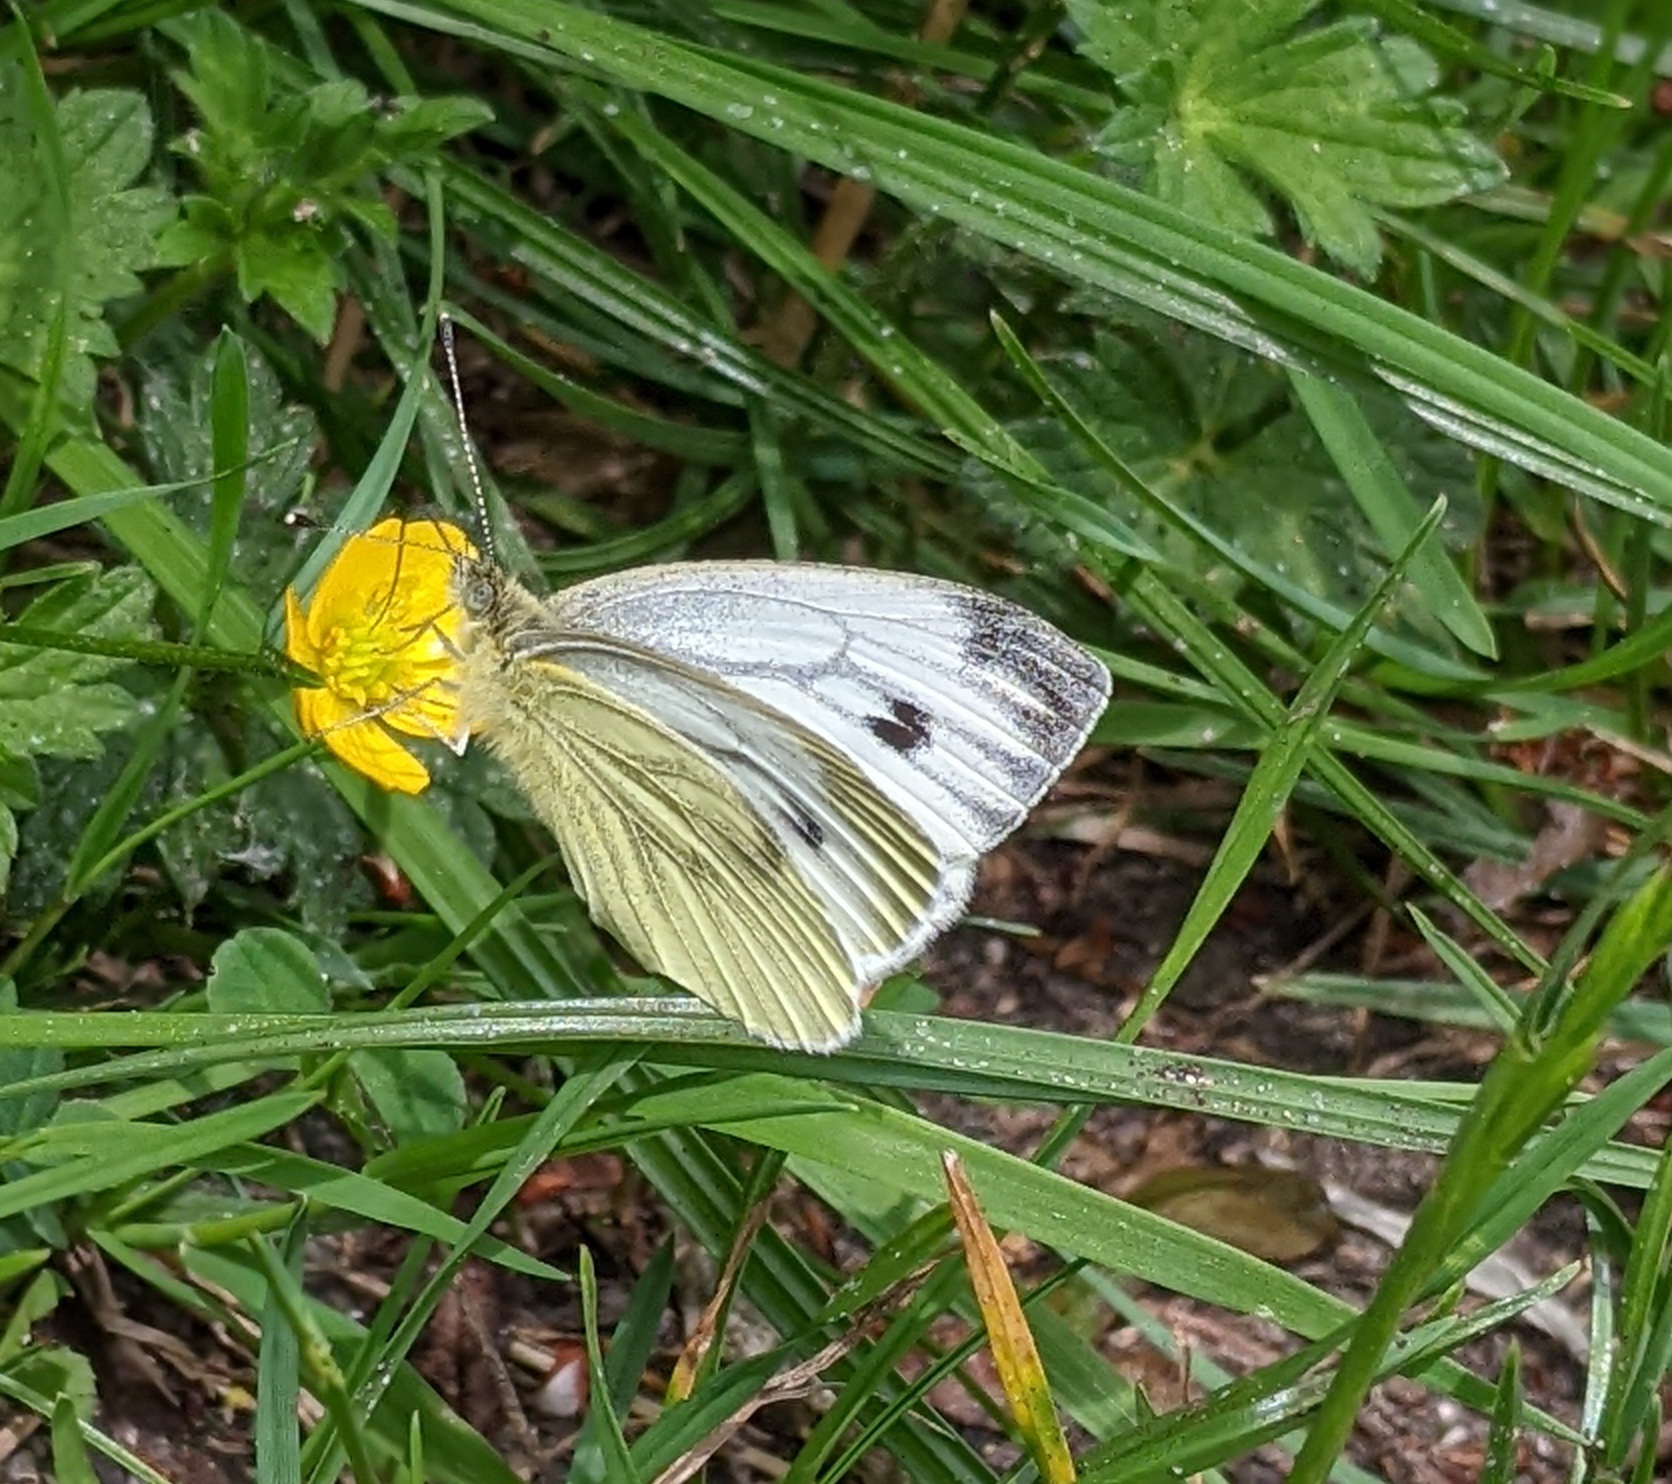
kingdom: Animalia
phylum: Arthropoda
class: Insecta
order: Lepidoptera
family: Pieridae
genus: Pieris
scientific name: Pieris napi
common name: Green-veined white
